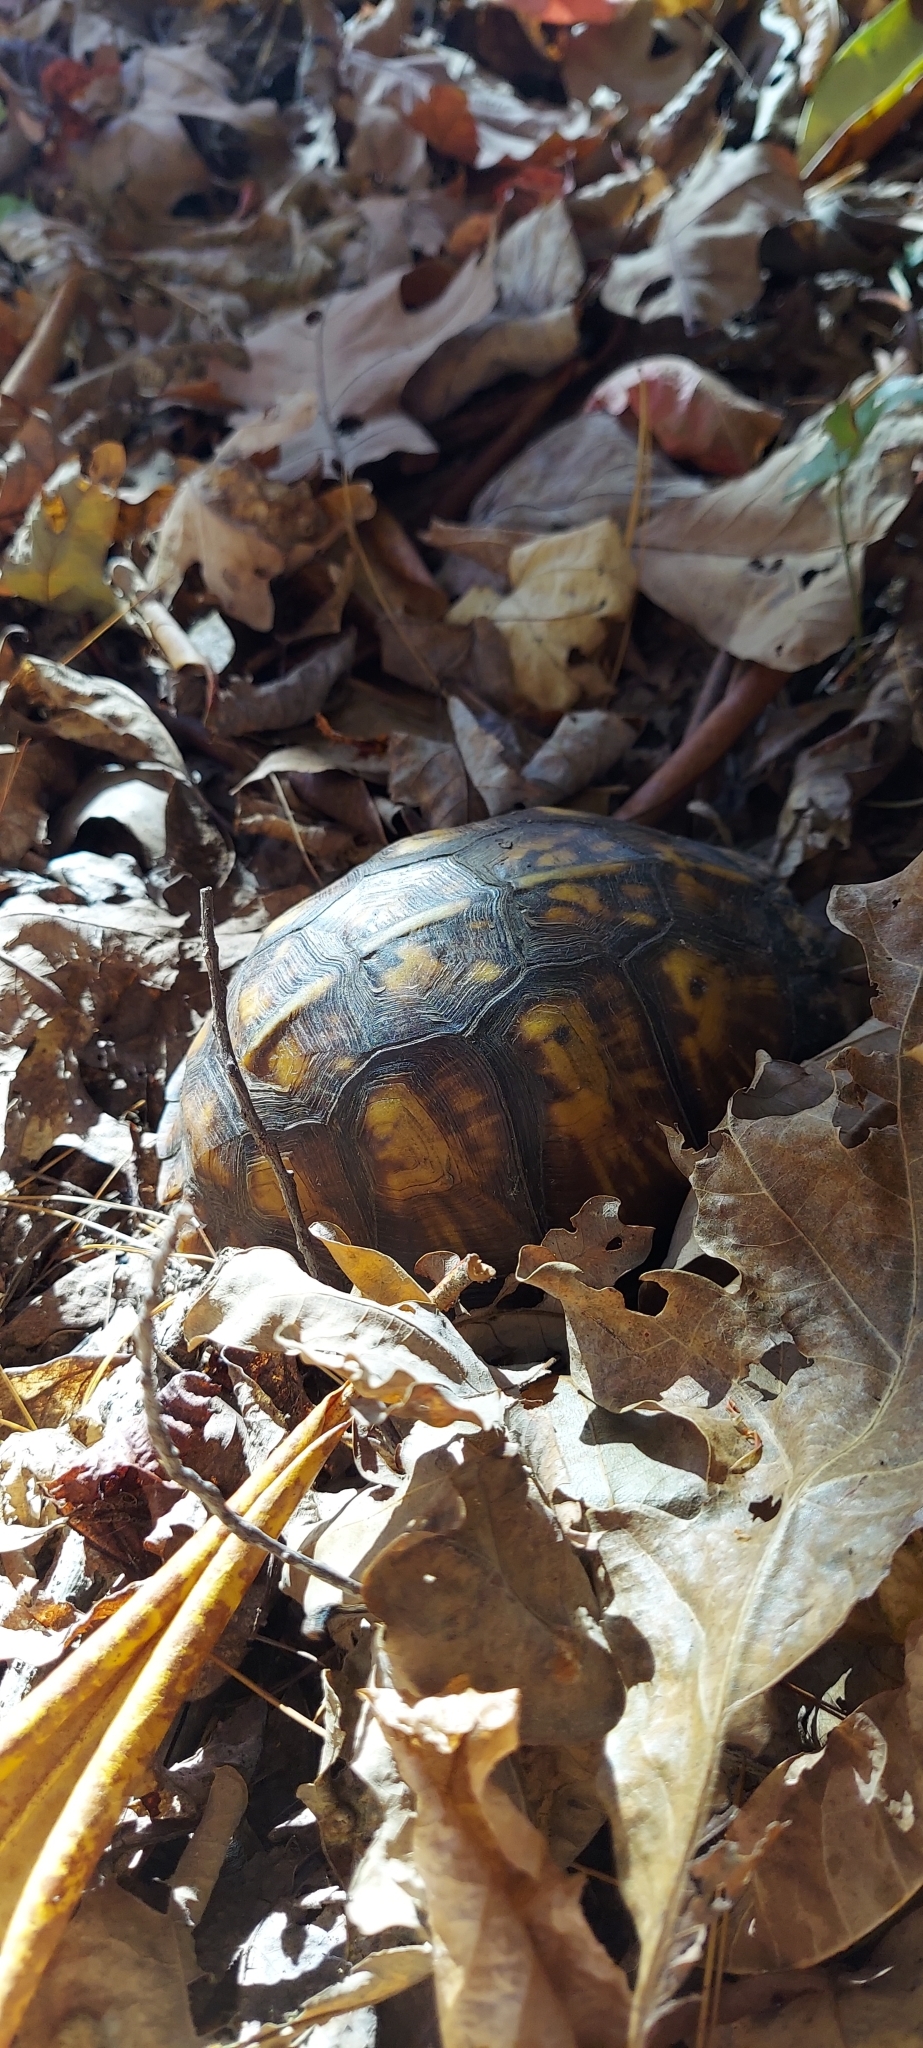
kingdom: Animalia
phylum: Chordata
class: Testudines
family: Emydidae
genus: Terrapene
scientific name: Terrapene carolina
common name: Common box turtle
